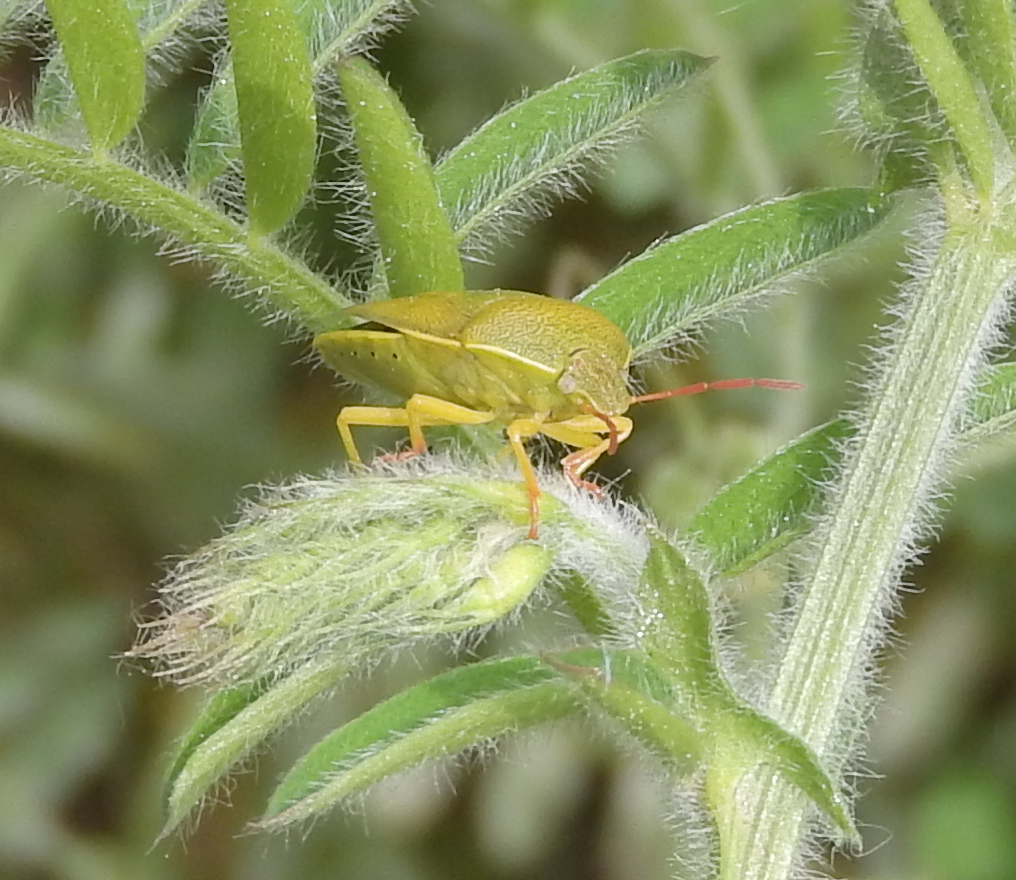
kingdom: Animalia
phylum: Arthropoda
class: Insecta
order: Hemiptera
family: Pentatomidae
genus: Piezodorus
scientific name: Piezodorus lituratus
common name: Stink bug
